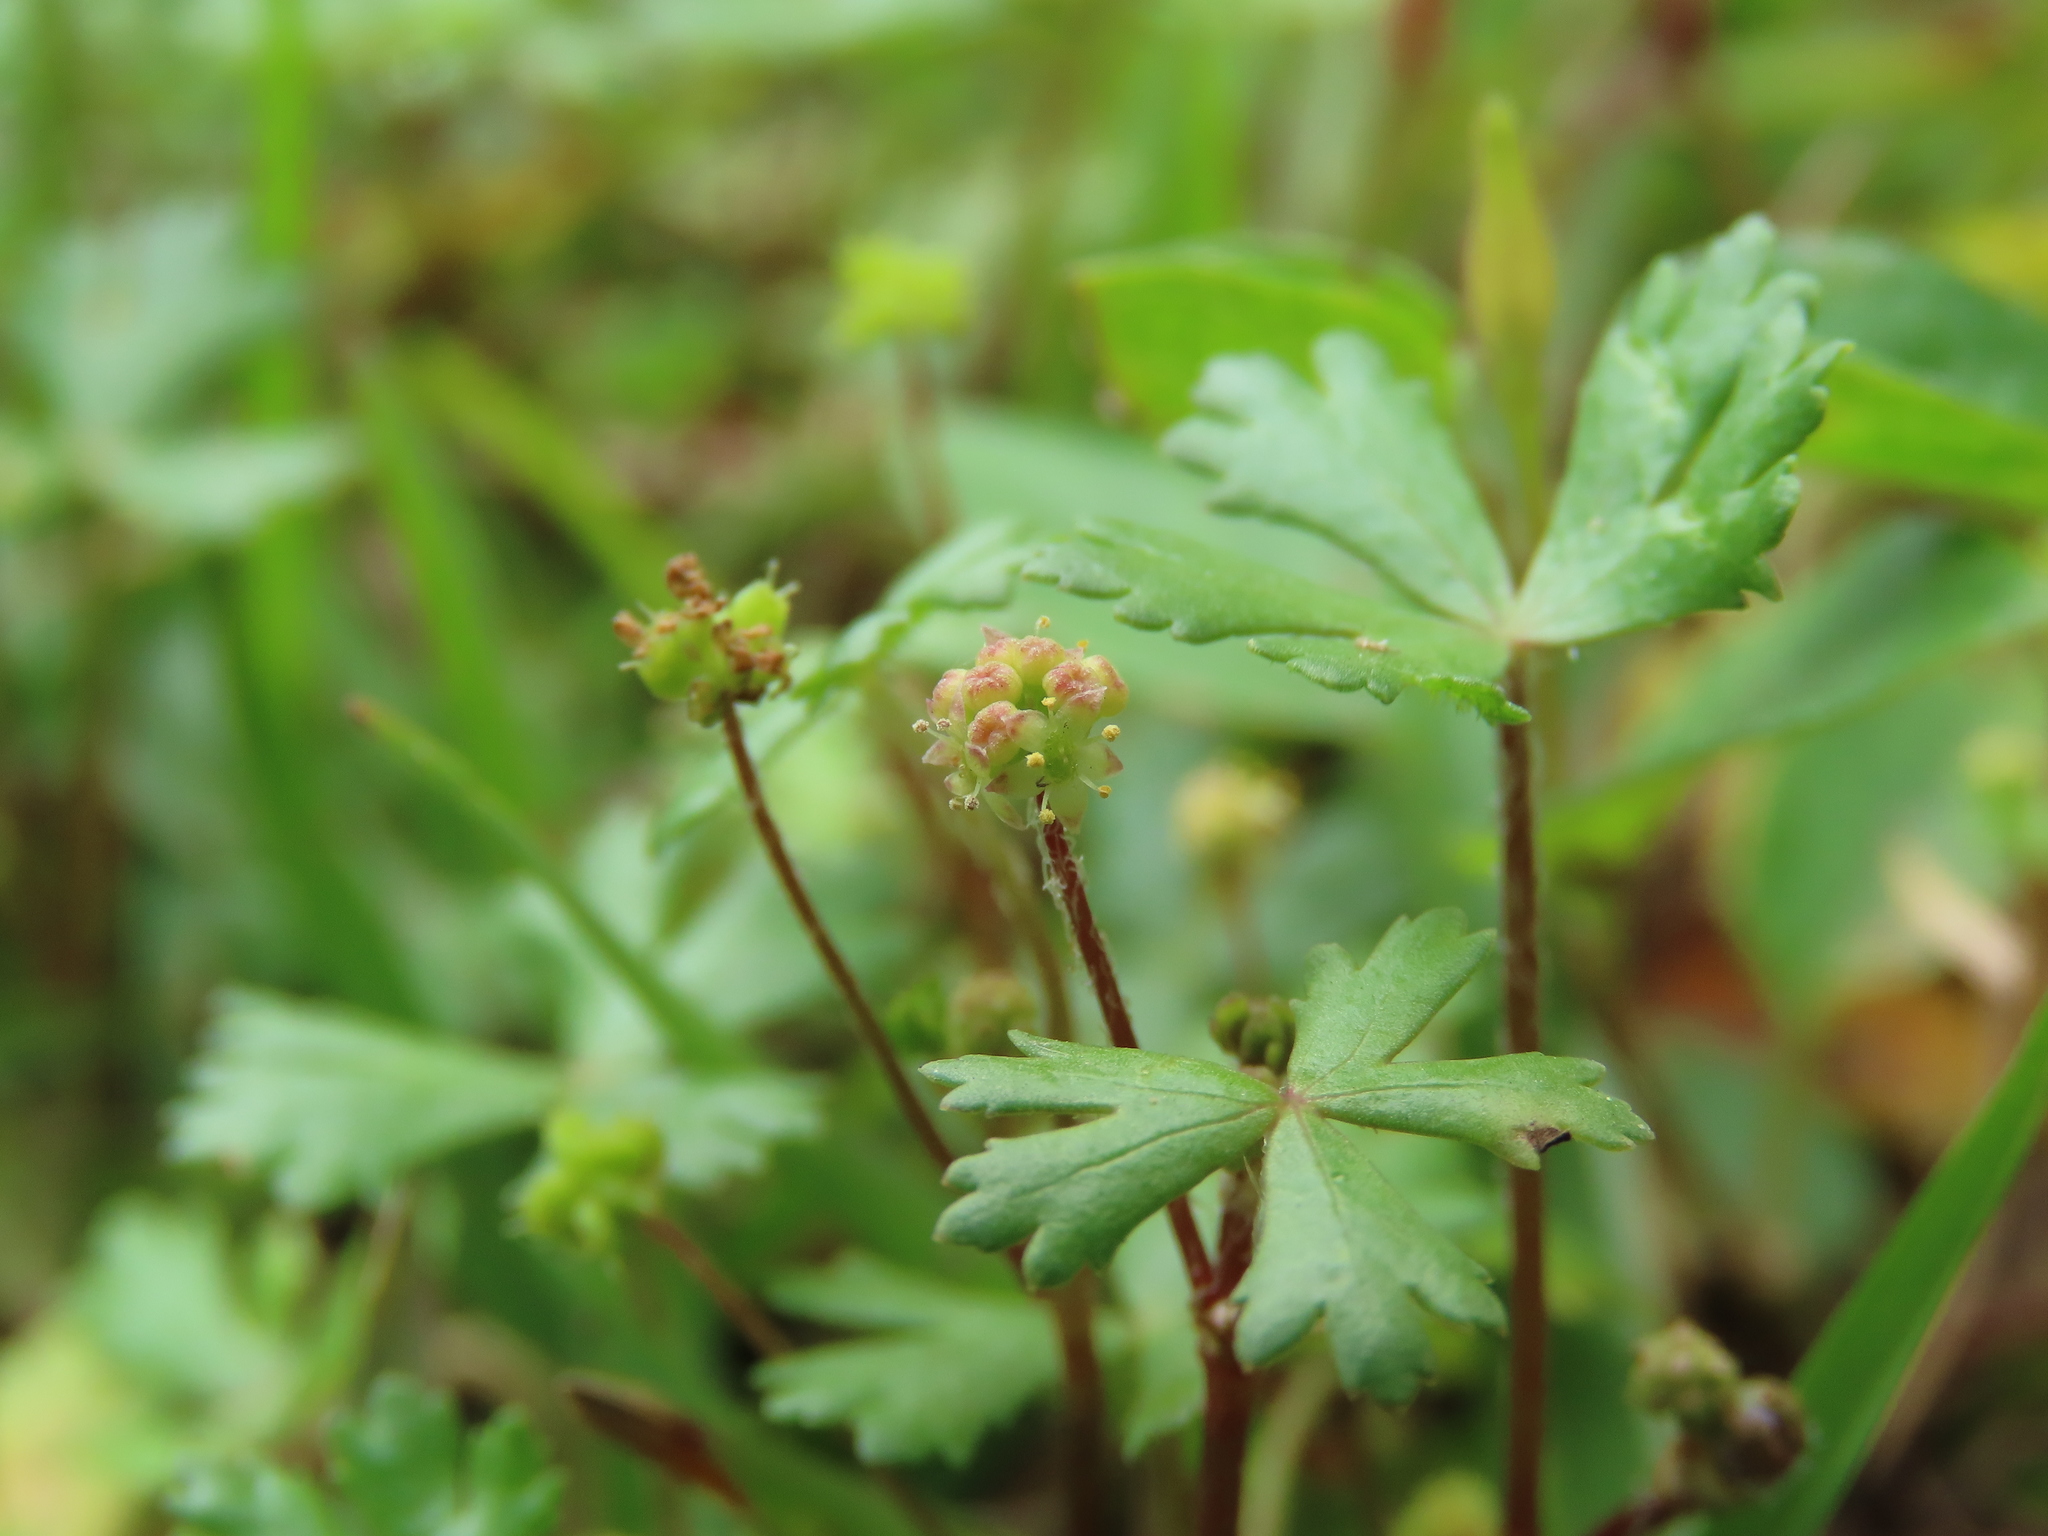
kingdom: Plantae
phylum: Tracheophyta
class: Magnoliopsida
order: Apiales
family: Araliaceae
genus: Hydrocotyle
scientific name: Hydrocotyle batrachium
